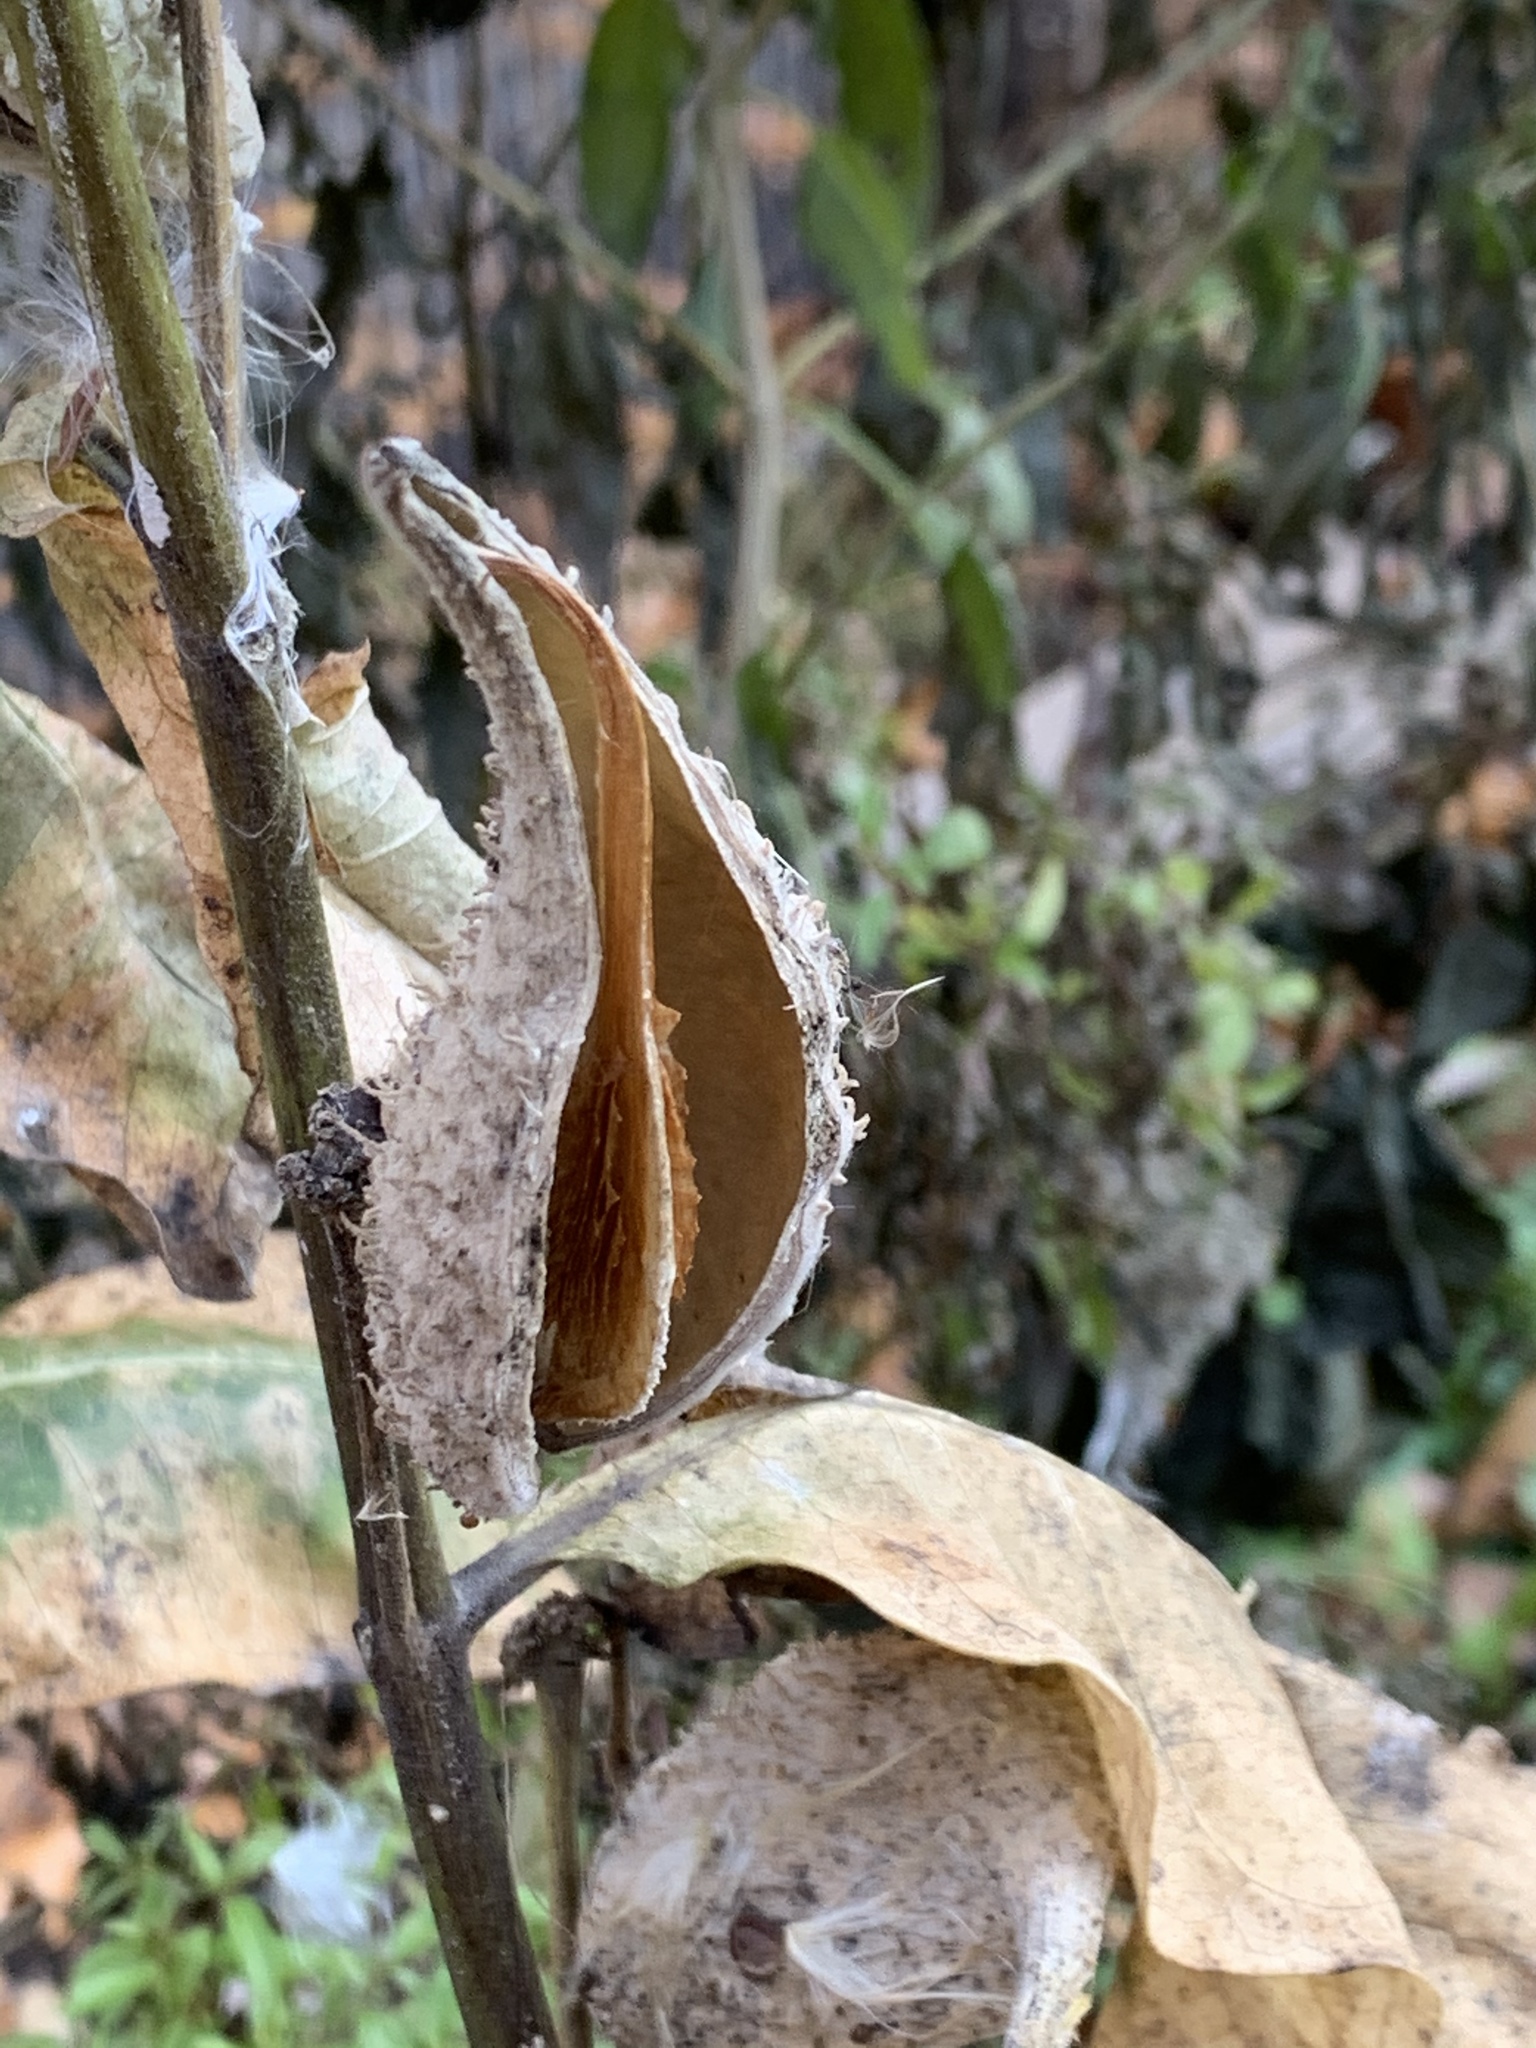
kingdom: Plantae
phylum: Tracheophyta
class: Magnoliopsida
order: Gentianales
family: Apocynaceae
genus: Asclepias
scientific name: Asclepias syriaca
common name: Common milkweed
